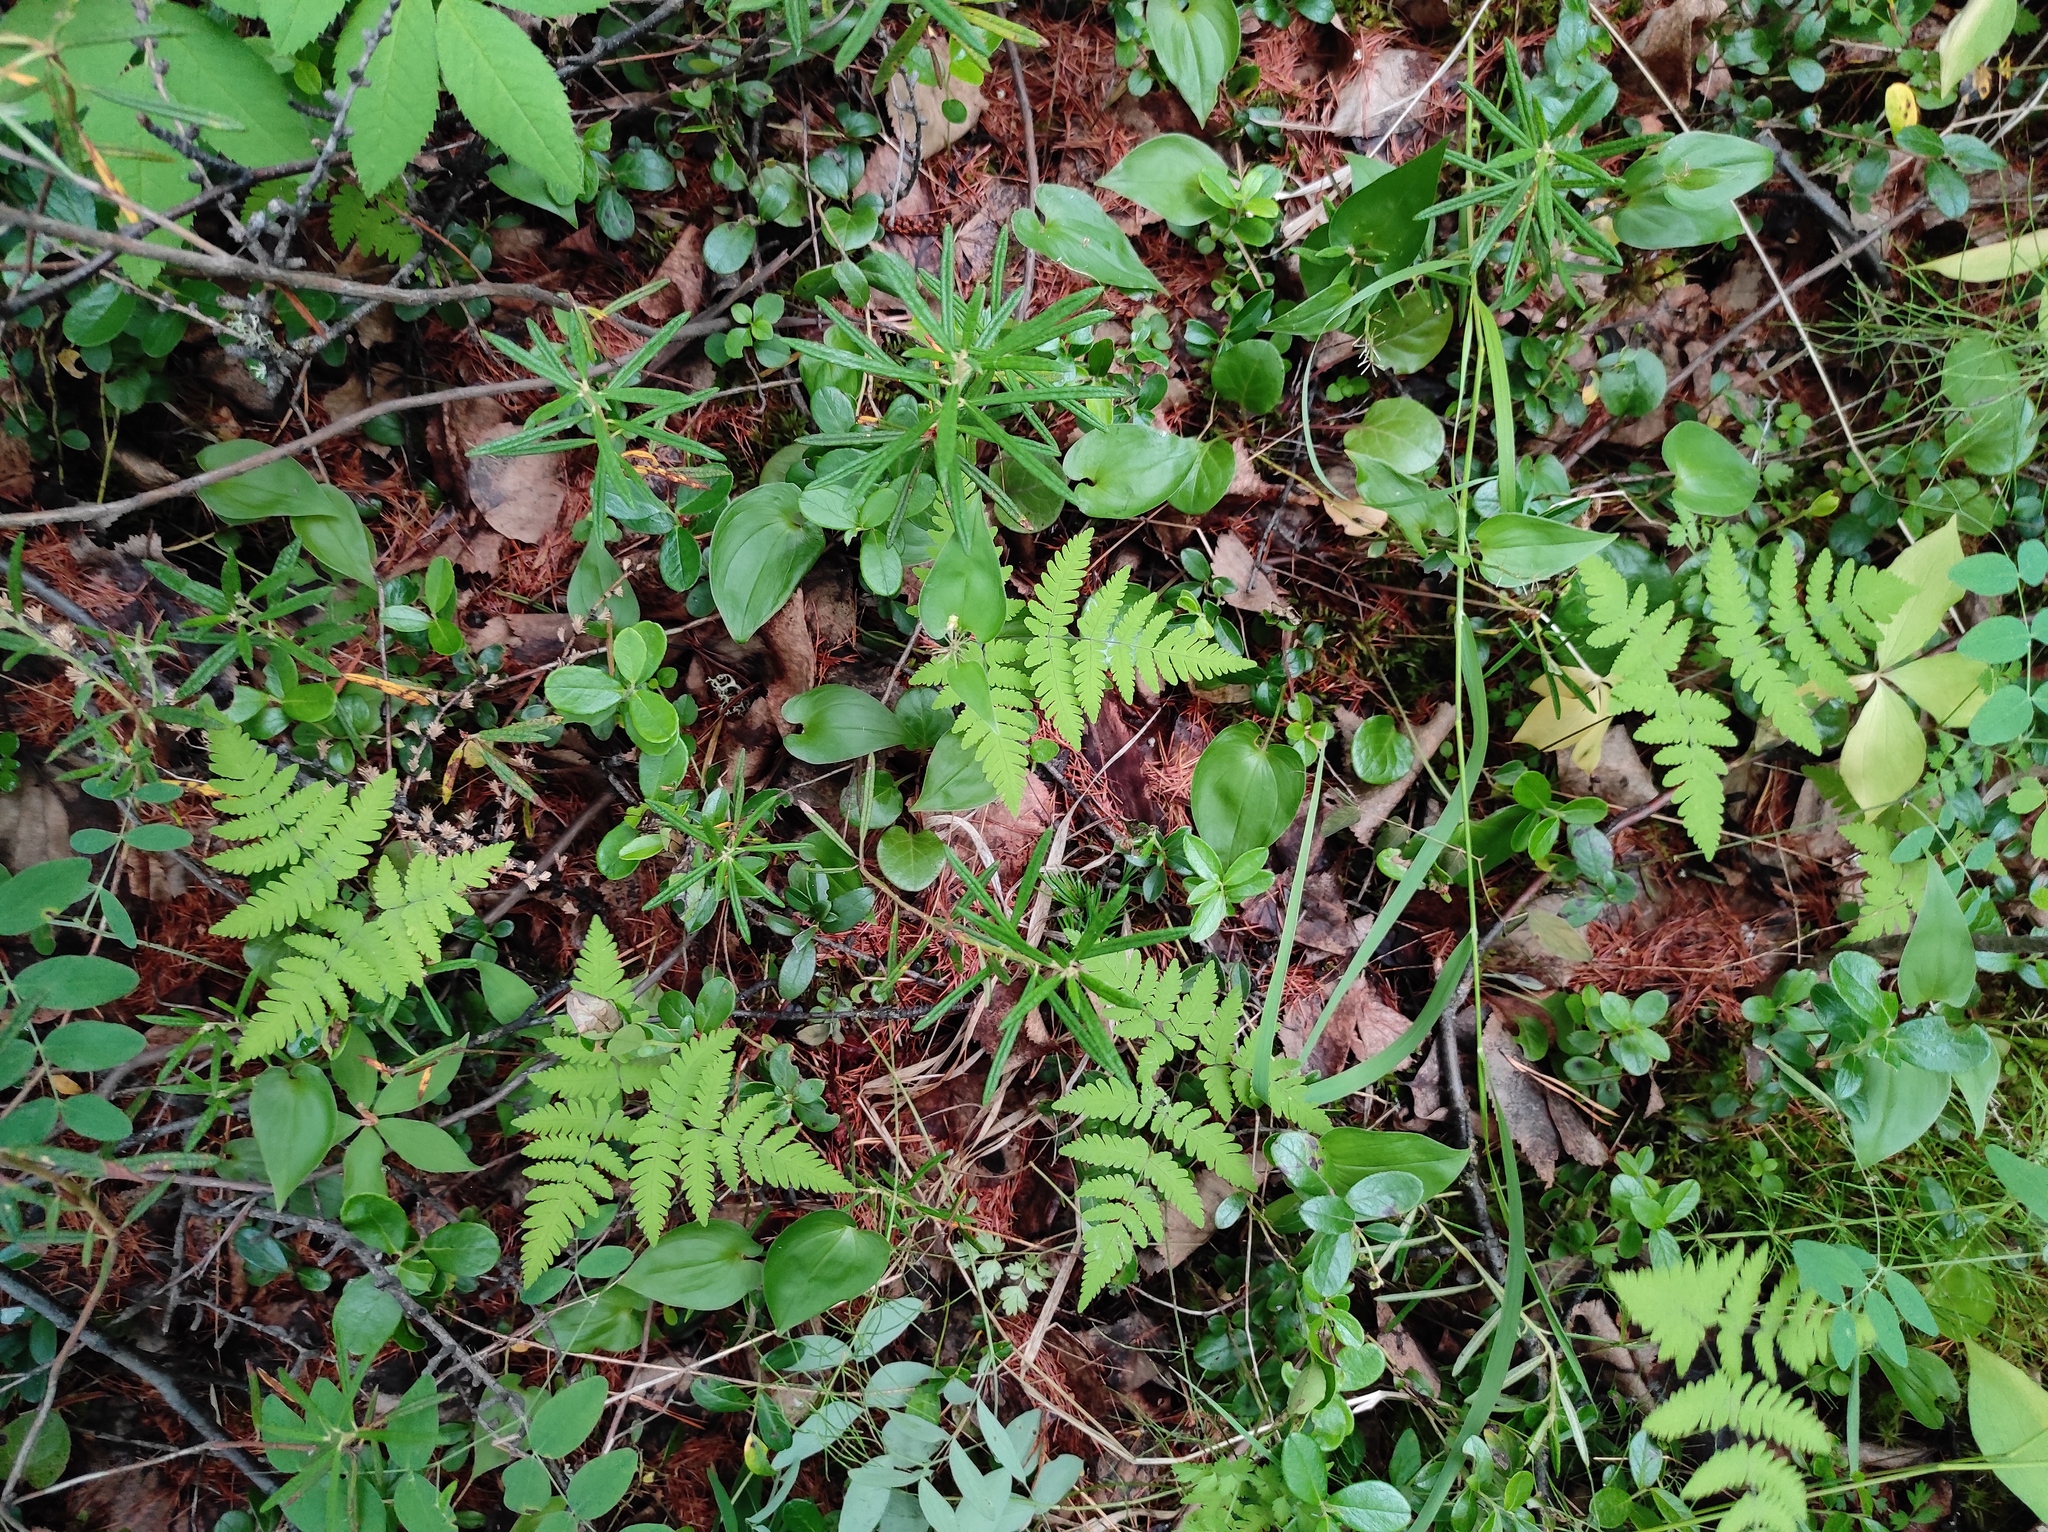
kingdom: Plantae
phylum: Tracheophyta
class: Magnoliopsida
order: Ericales
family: Ericaceae
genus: Rhododendron
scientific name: Rhododendron tomentosum
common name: Marsh labrador tea
